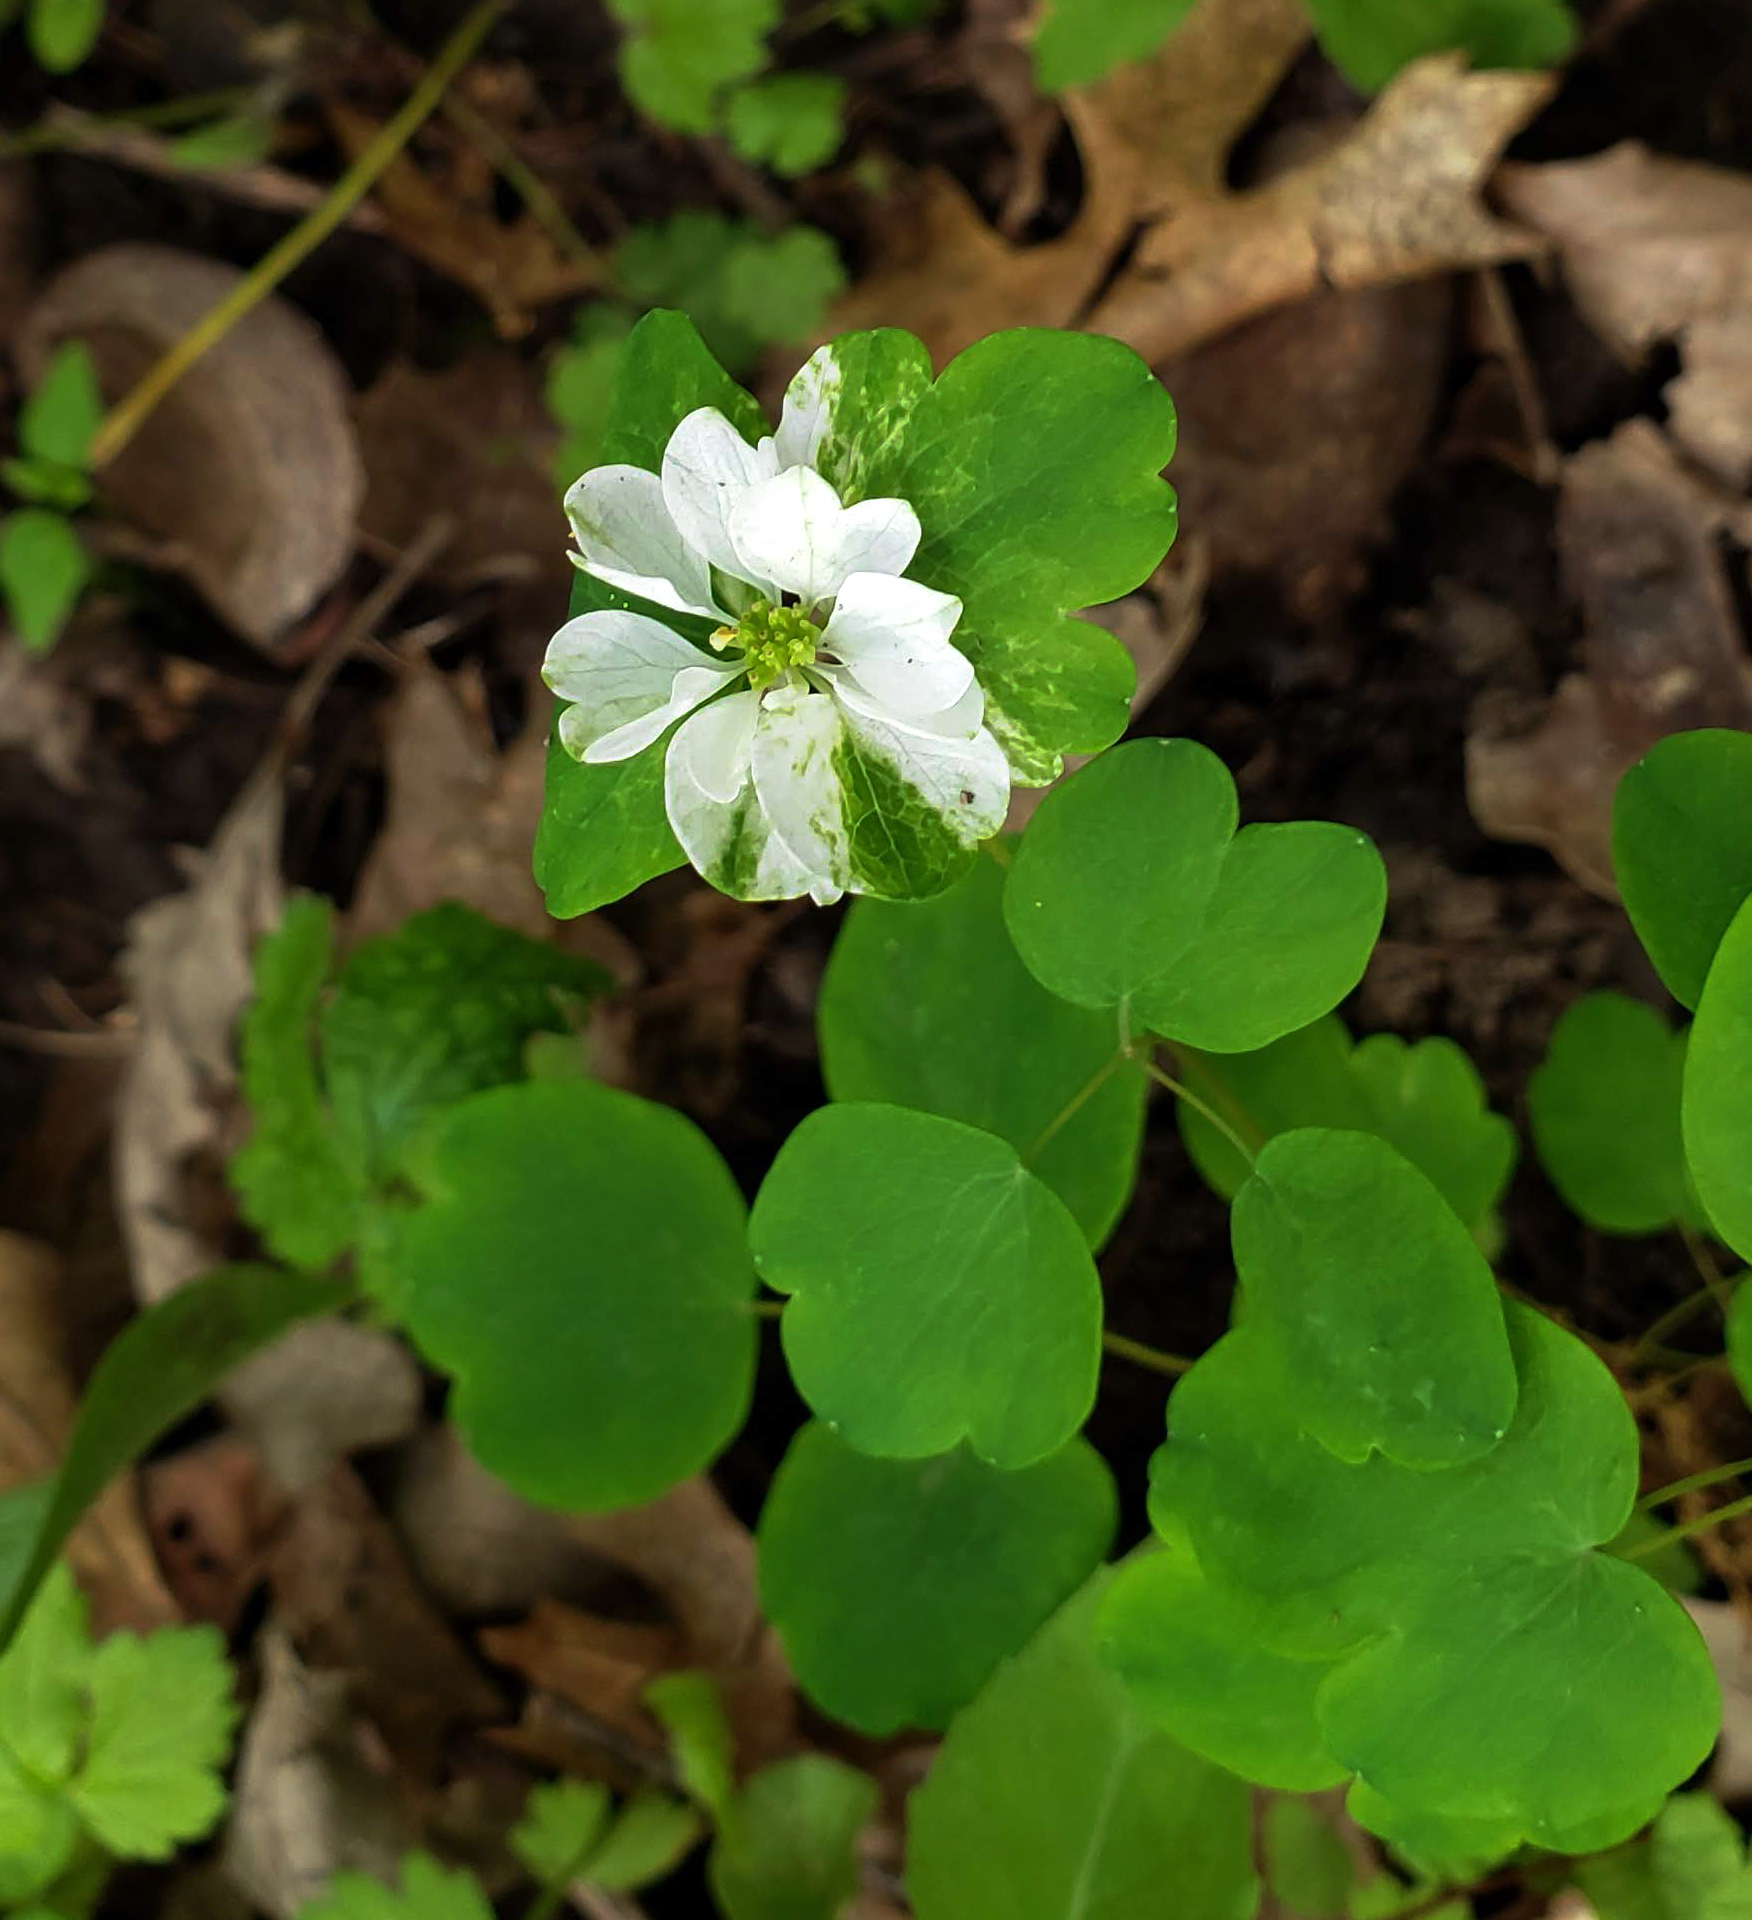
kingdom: Plantae
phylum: Tracheophyta
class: Magnoliopsida
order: Ranunculales
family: Ranunculaceae
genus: Thalictrum
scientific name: Thalictrum thalictroides
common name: Rue-anemone
